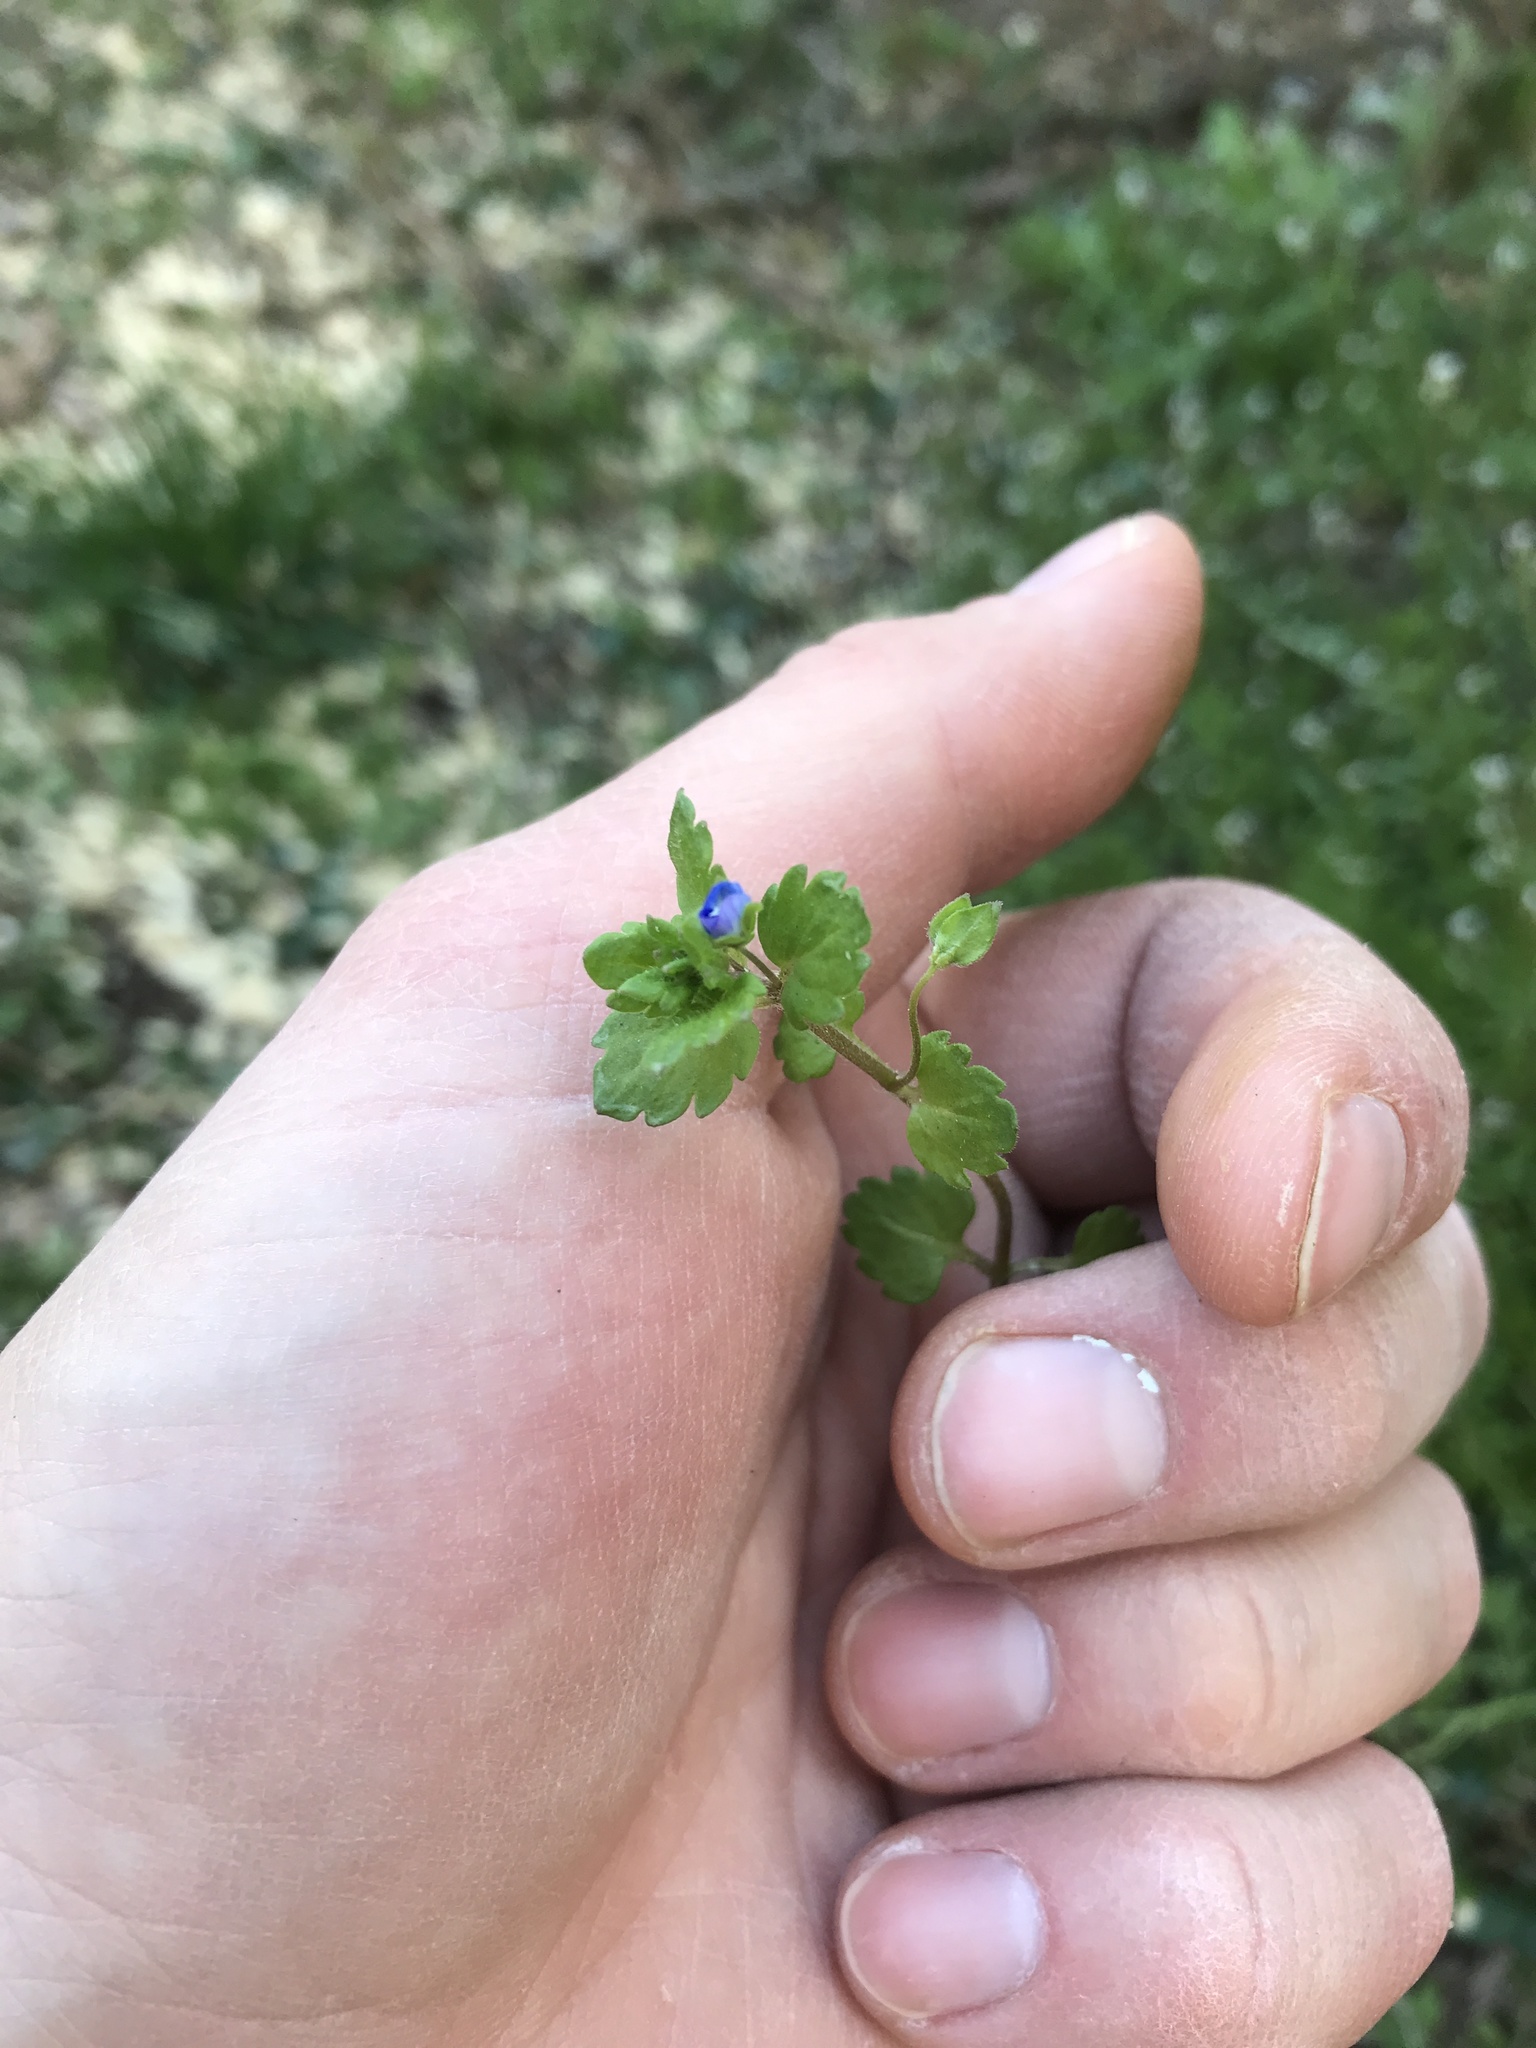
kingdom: Plantae
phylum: Tracheophyta
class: Magnoliopsida
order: Lamiales
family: Plantaginaceae
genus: Veronica
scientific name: Veronica persica
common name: Common field-speedwell
